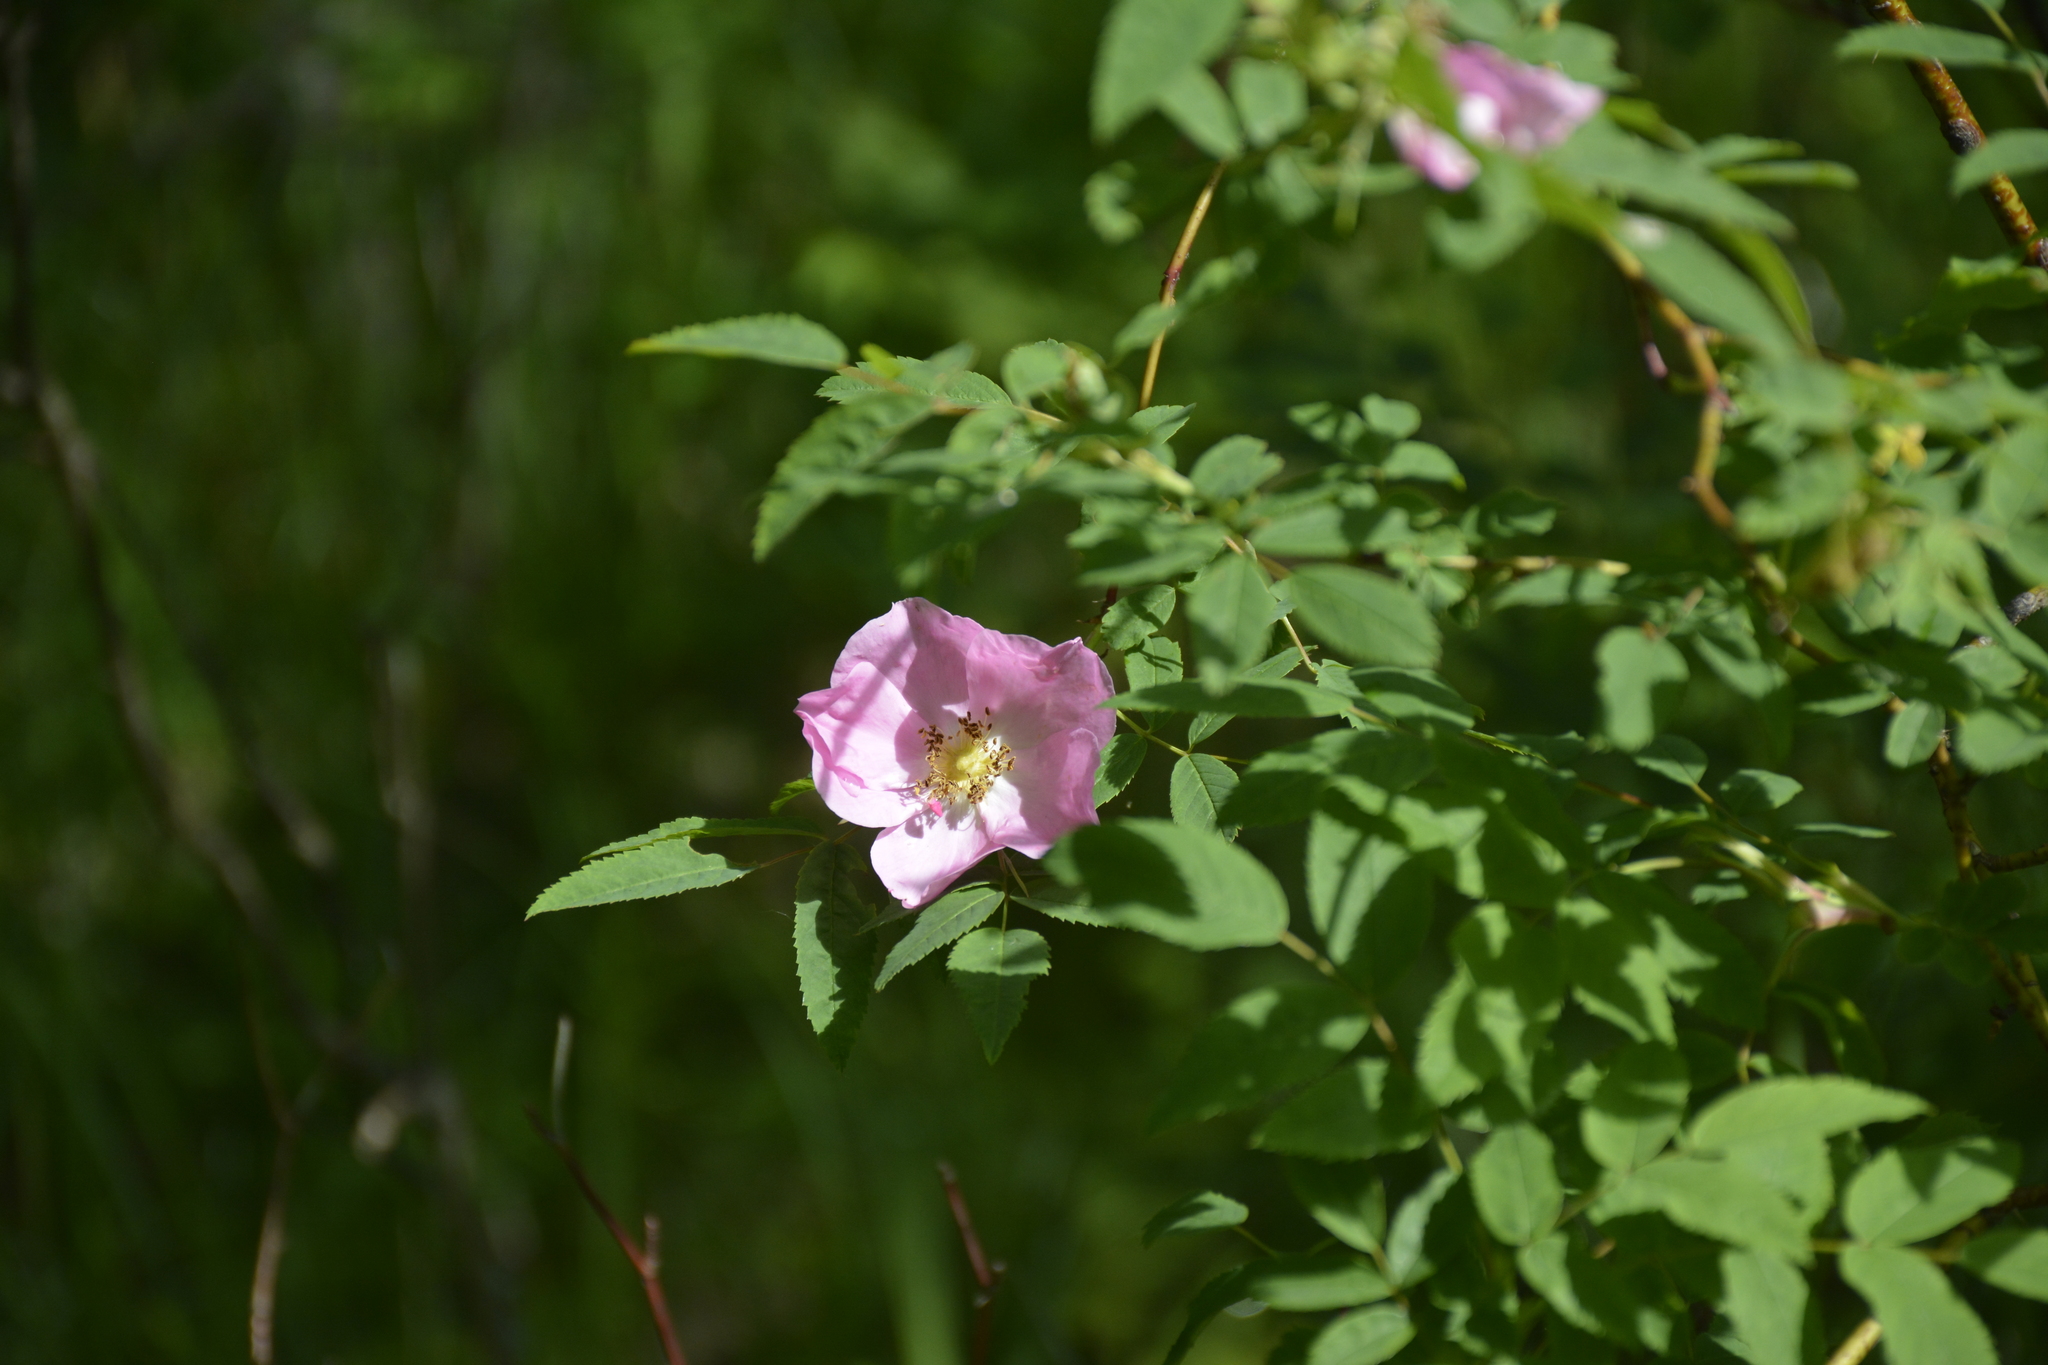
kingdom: Plantae
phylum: Tracheophyta
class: Magnoliopsida
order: Rosales
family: Rosaceae
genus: Rosa
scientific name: Rosa majalis
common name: Cinnamon rose
